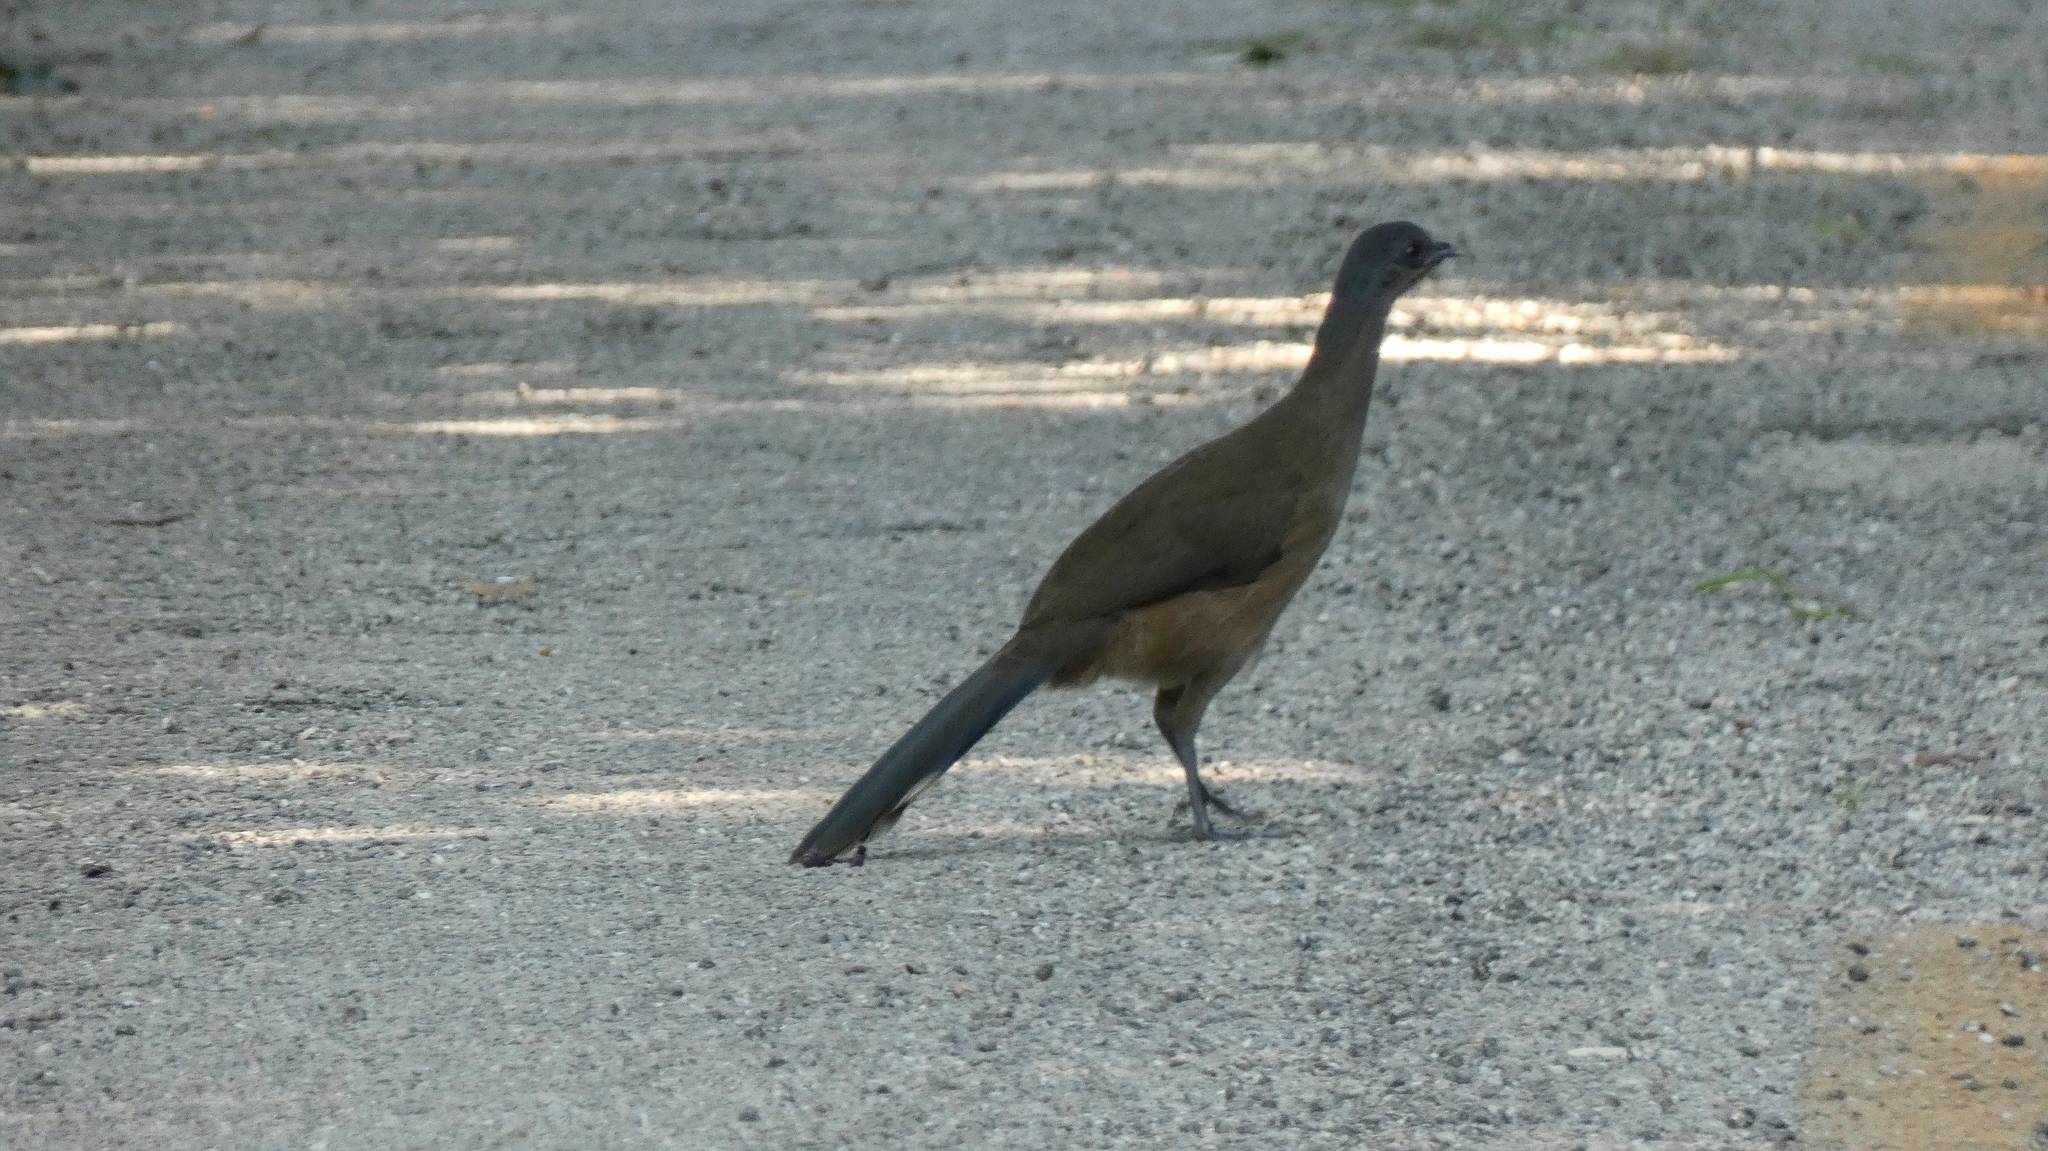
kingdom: Animalia
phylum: Chordata
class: Aves
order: Galliformes
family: Cracidae
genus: Ortalis
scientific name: Ortalis vetula
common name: Plain chachalaca
